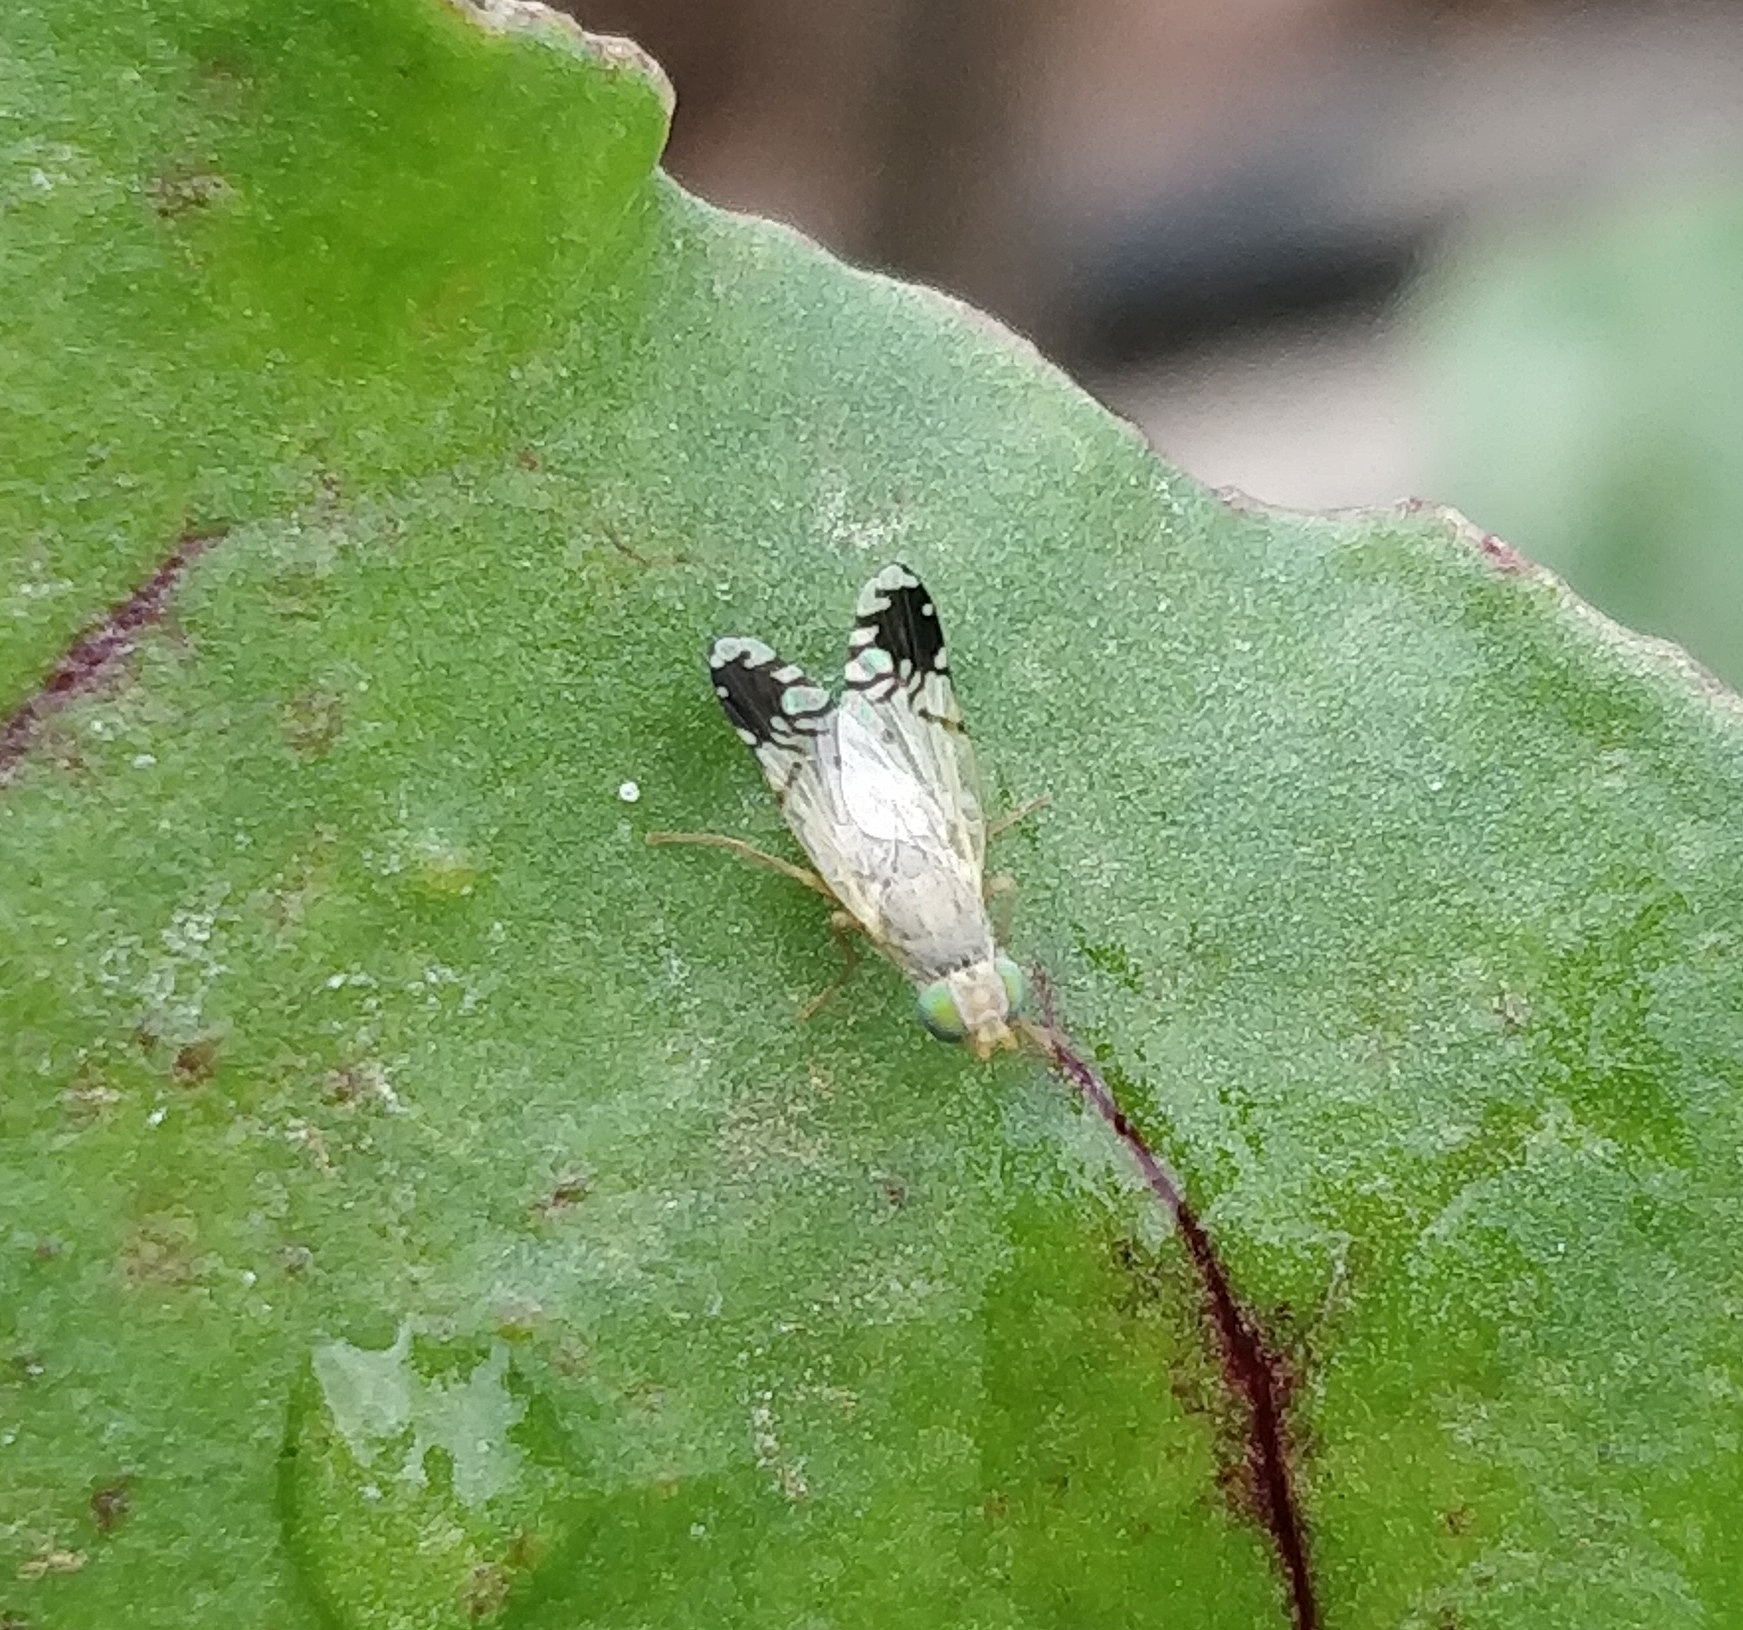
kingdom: Animalia
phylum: Arthropoda
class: Insecta
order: Diptera
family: Tephritidae
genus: Trupanea
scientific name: Trupanea amoena
